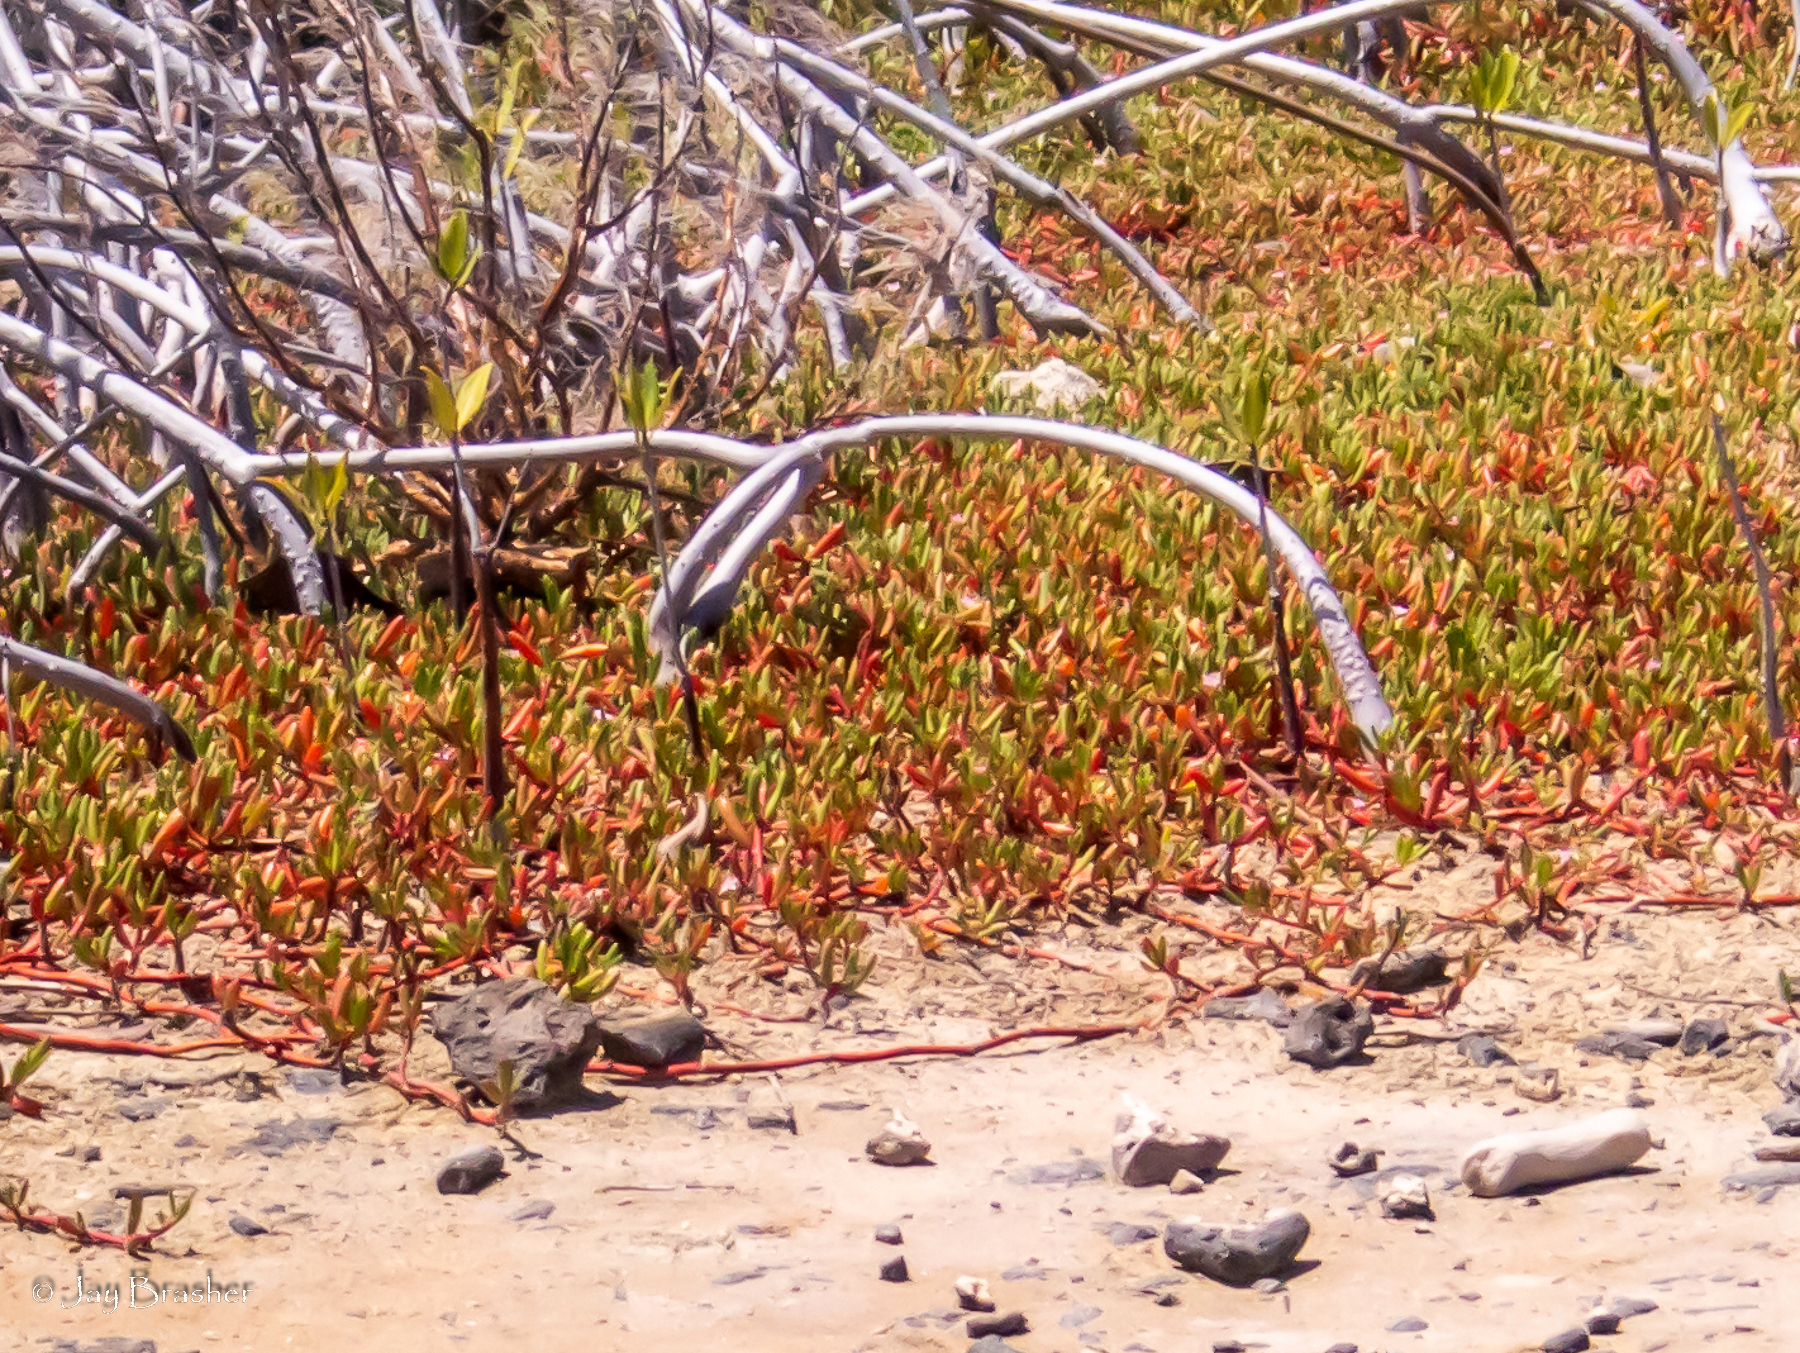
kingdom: Plantae
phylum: Tracheophyta
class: Magnoliopsida
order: Caryophyllales
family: Aizoaceae
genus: Sesuvium
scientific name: Sesuvium portulacastrum
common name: Sea-purslane
